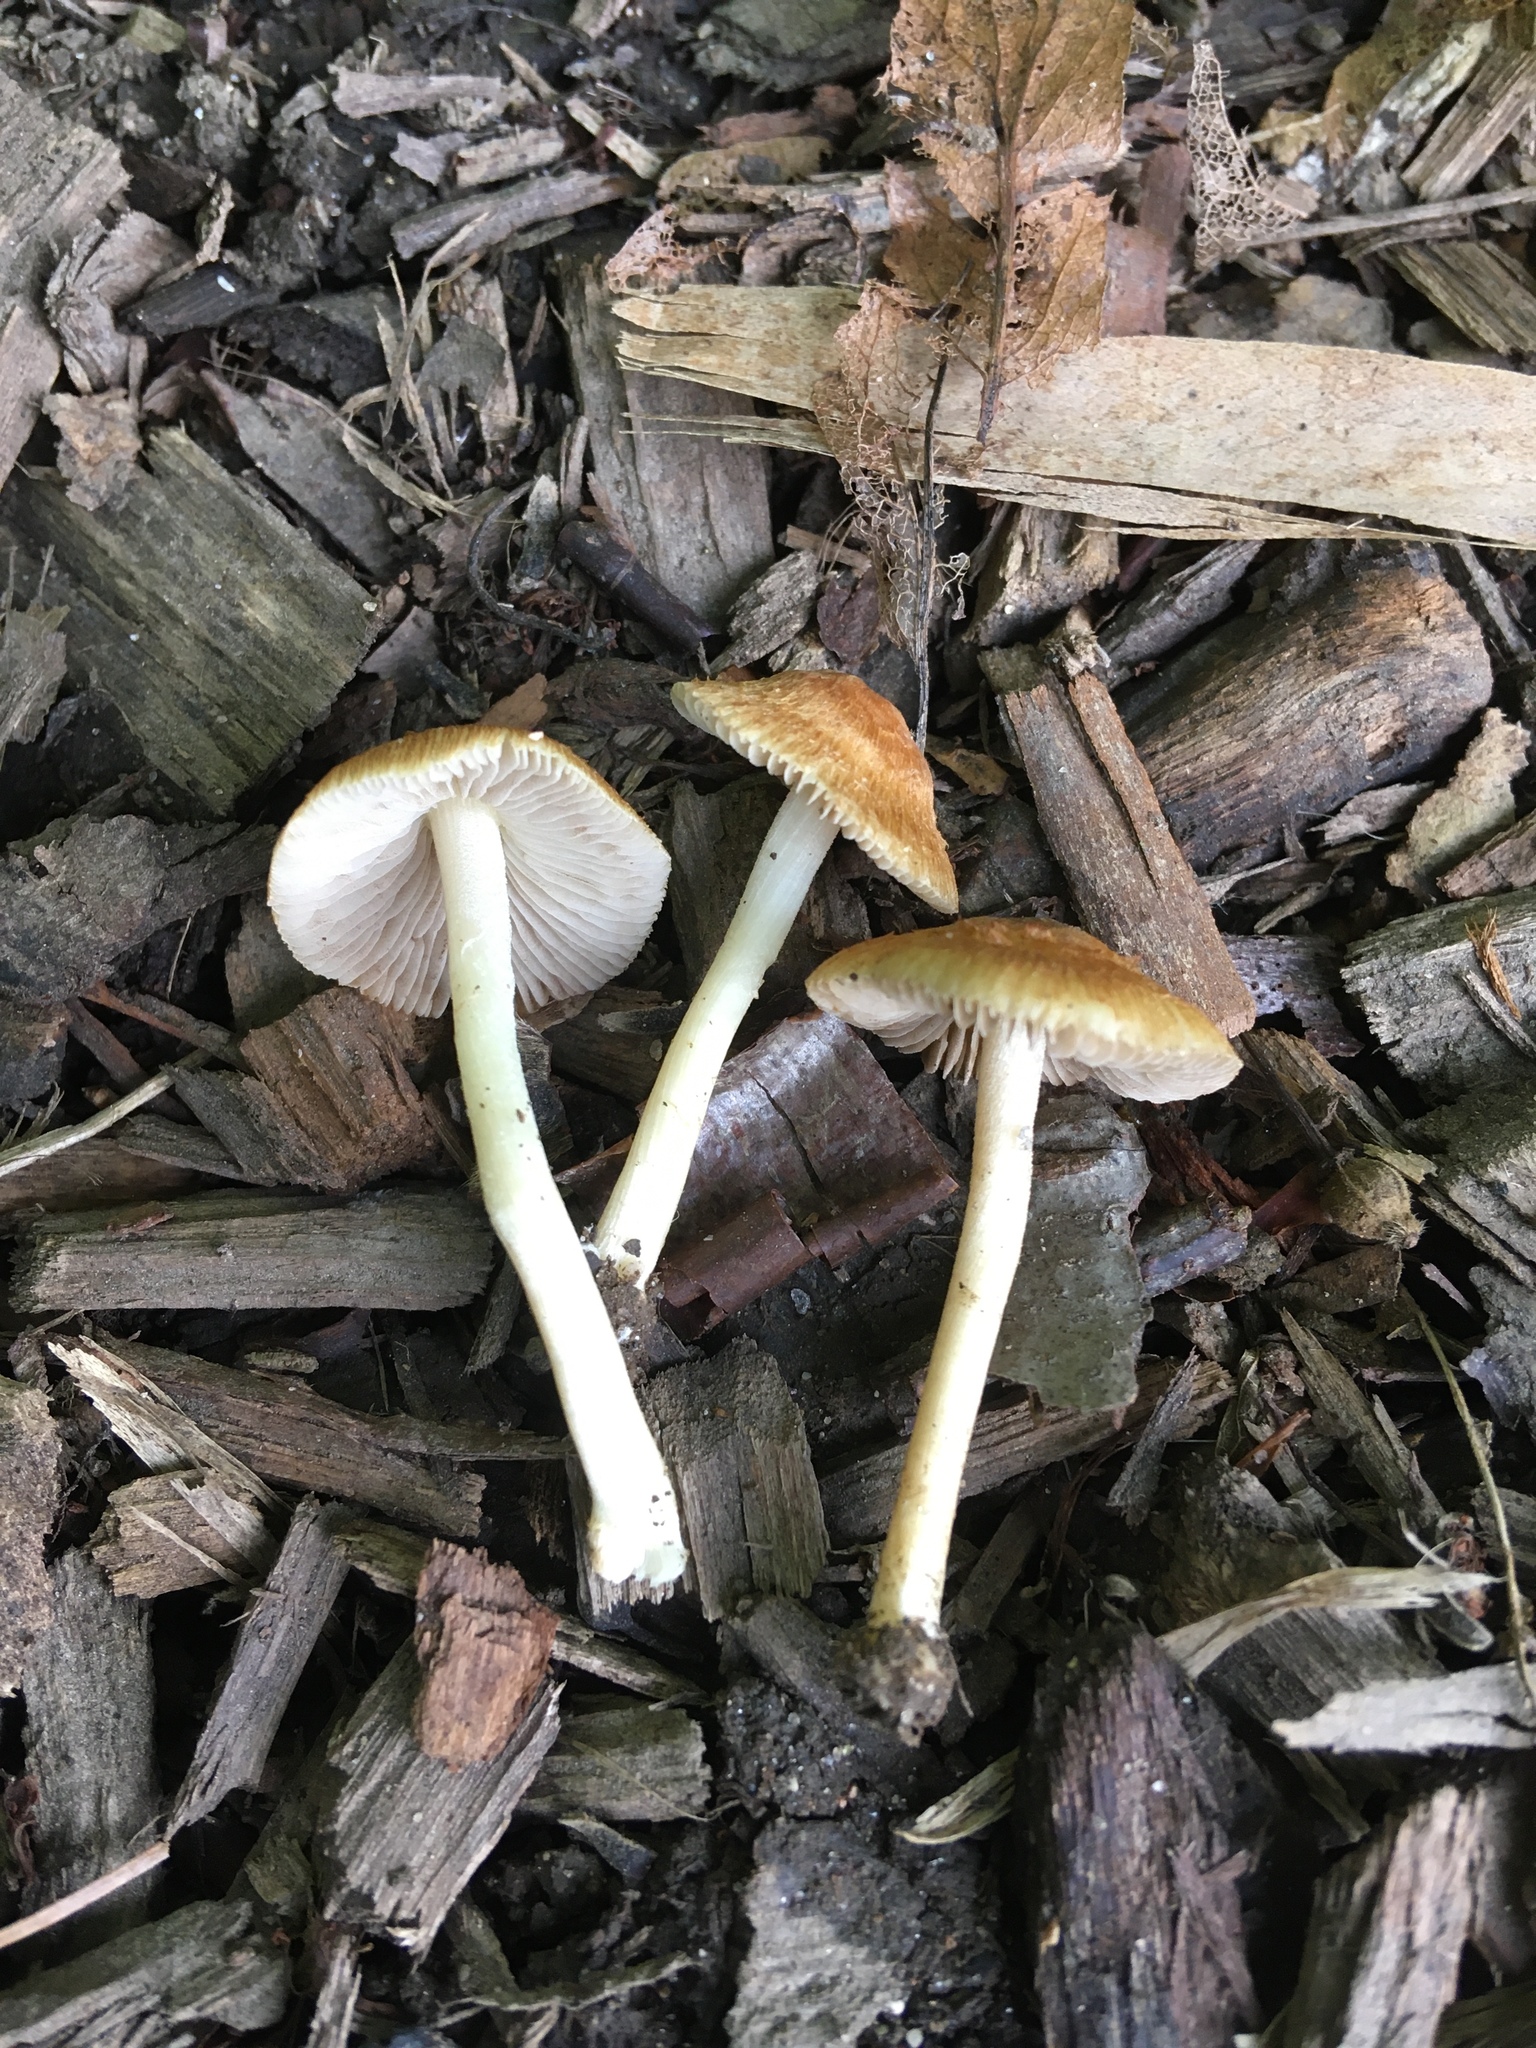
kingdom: Fungi
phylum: Basidiomycota
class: Agaricomycetes
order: Agaricales
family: Inocybaceae
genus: Pseudosperma
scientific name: Pseudosperma friabile
